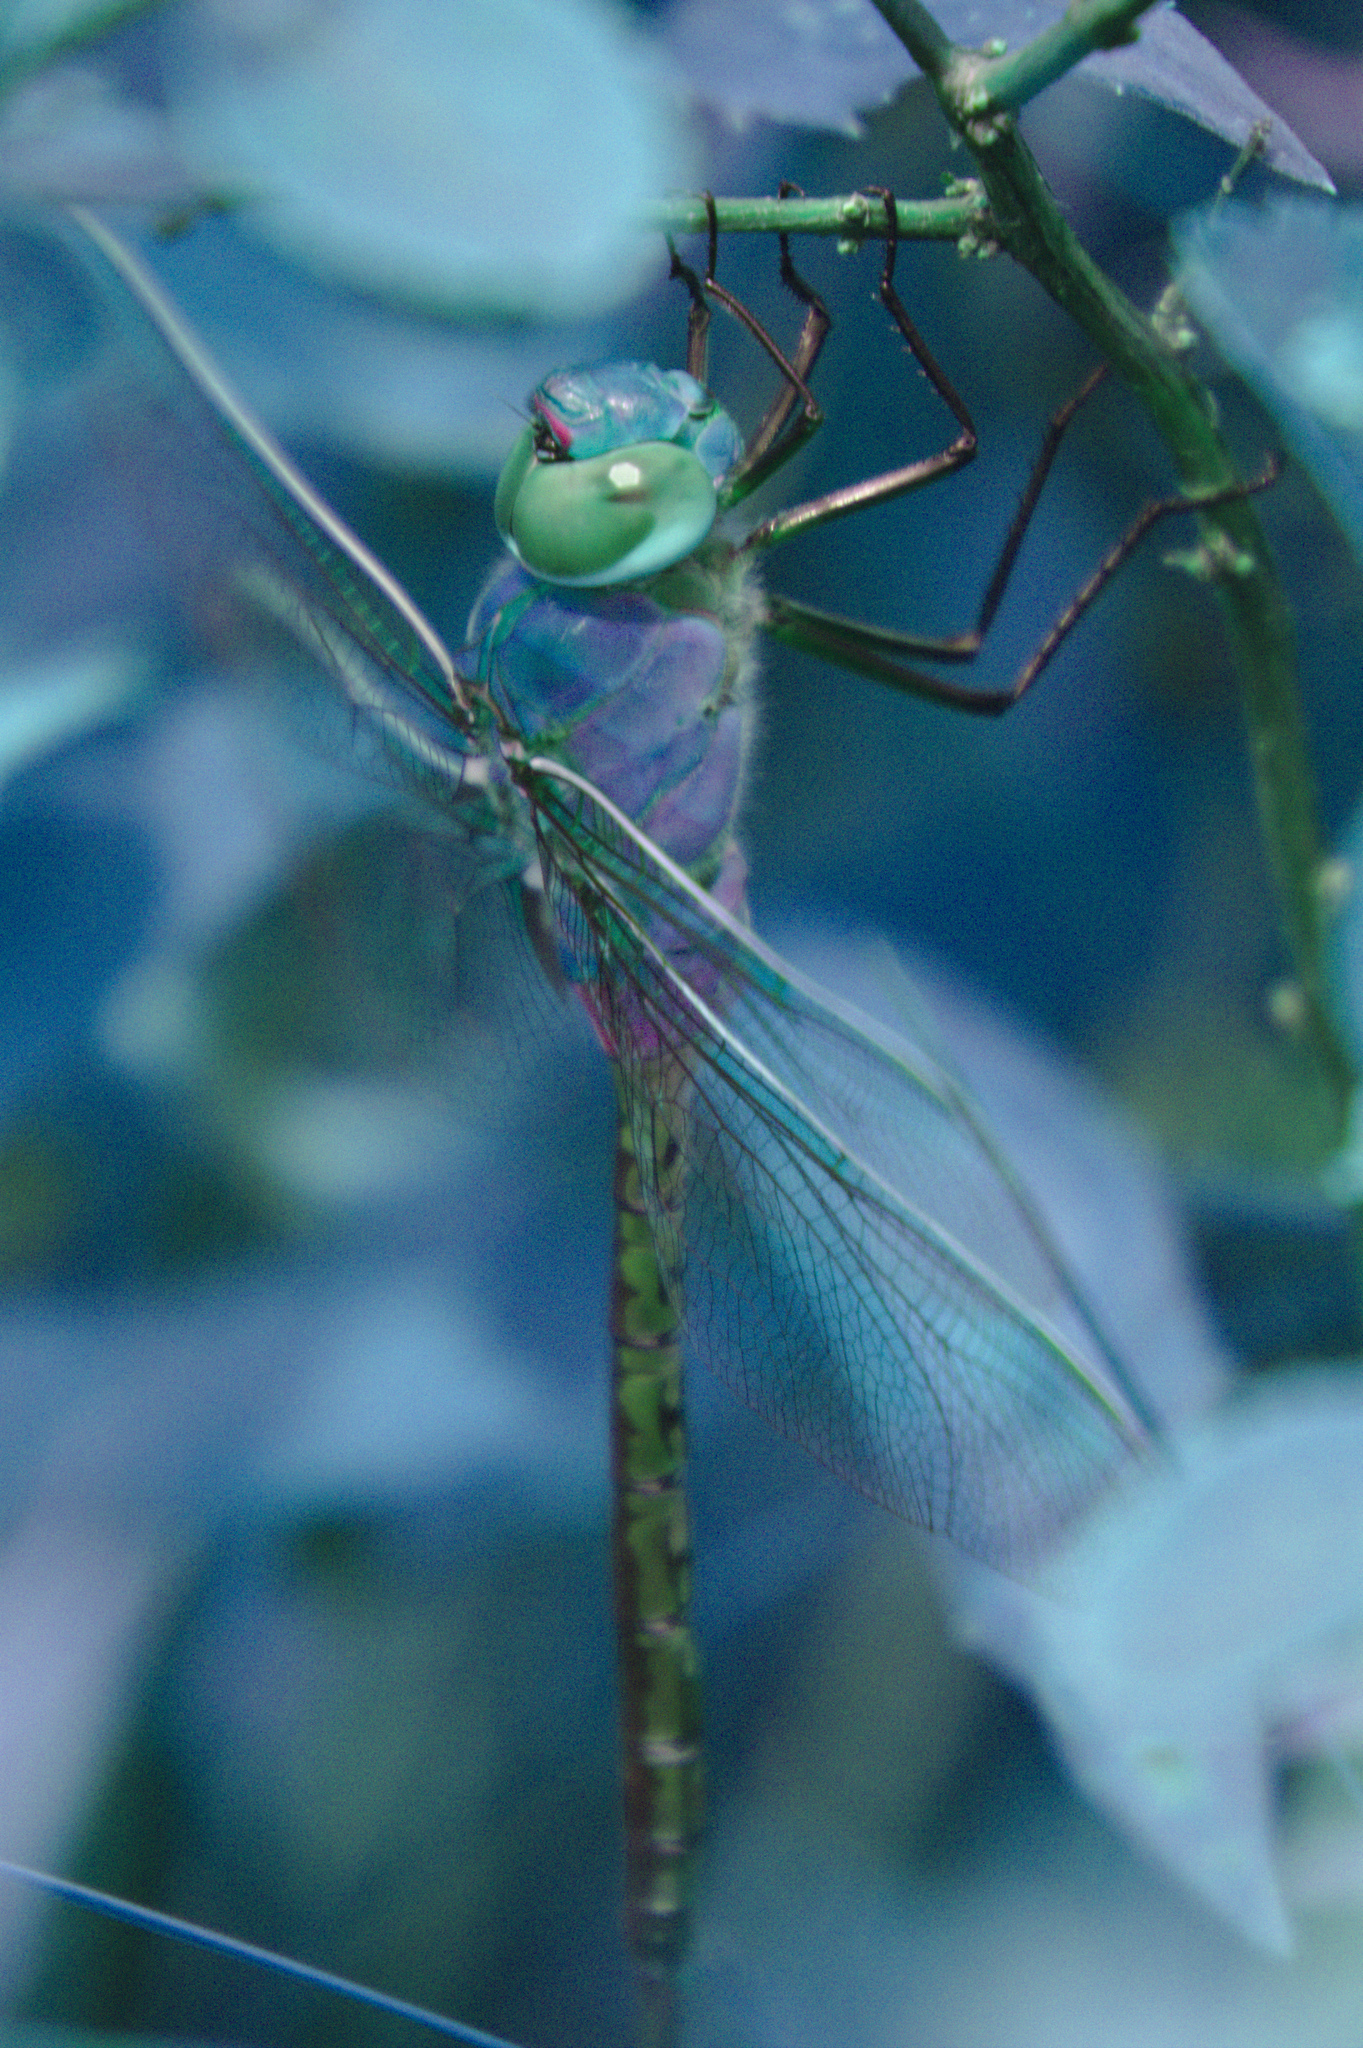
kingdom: Animalia
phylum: Arthropoda
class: Insecta
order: Odonata
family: Aeshnidae
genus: Anax
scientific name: Anax junius
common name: Common green darner
